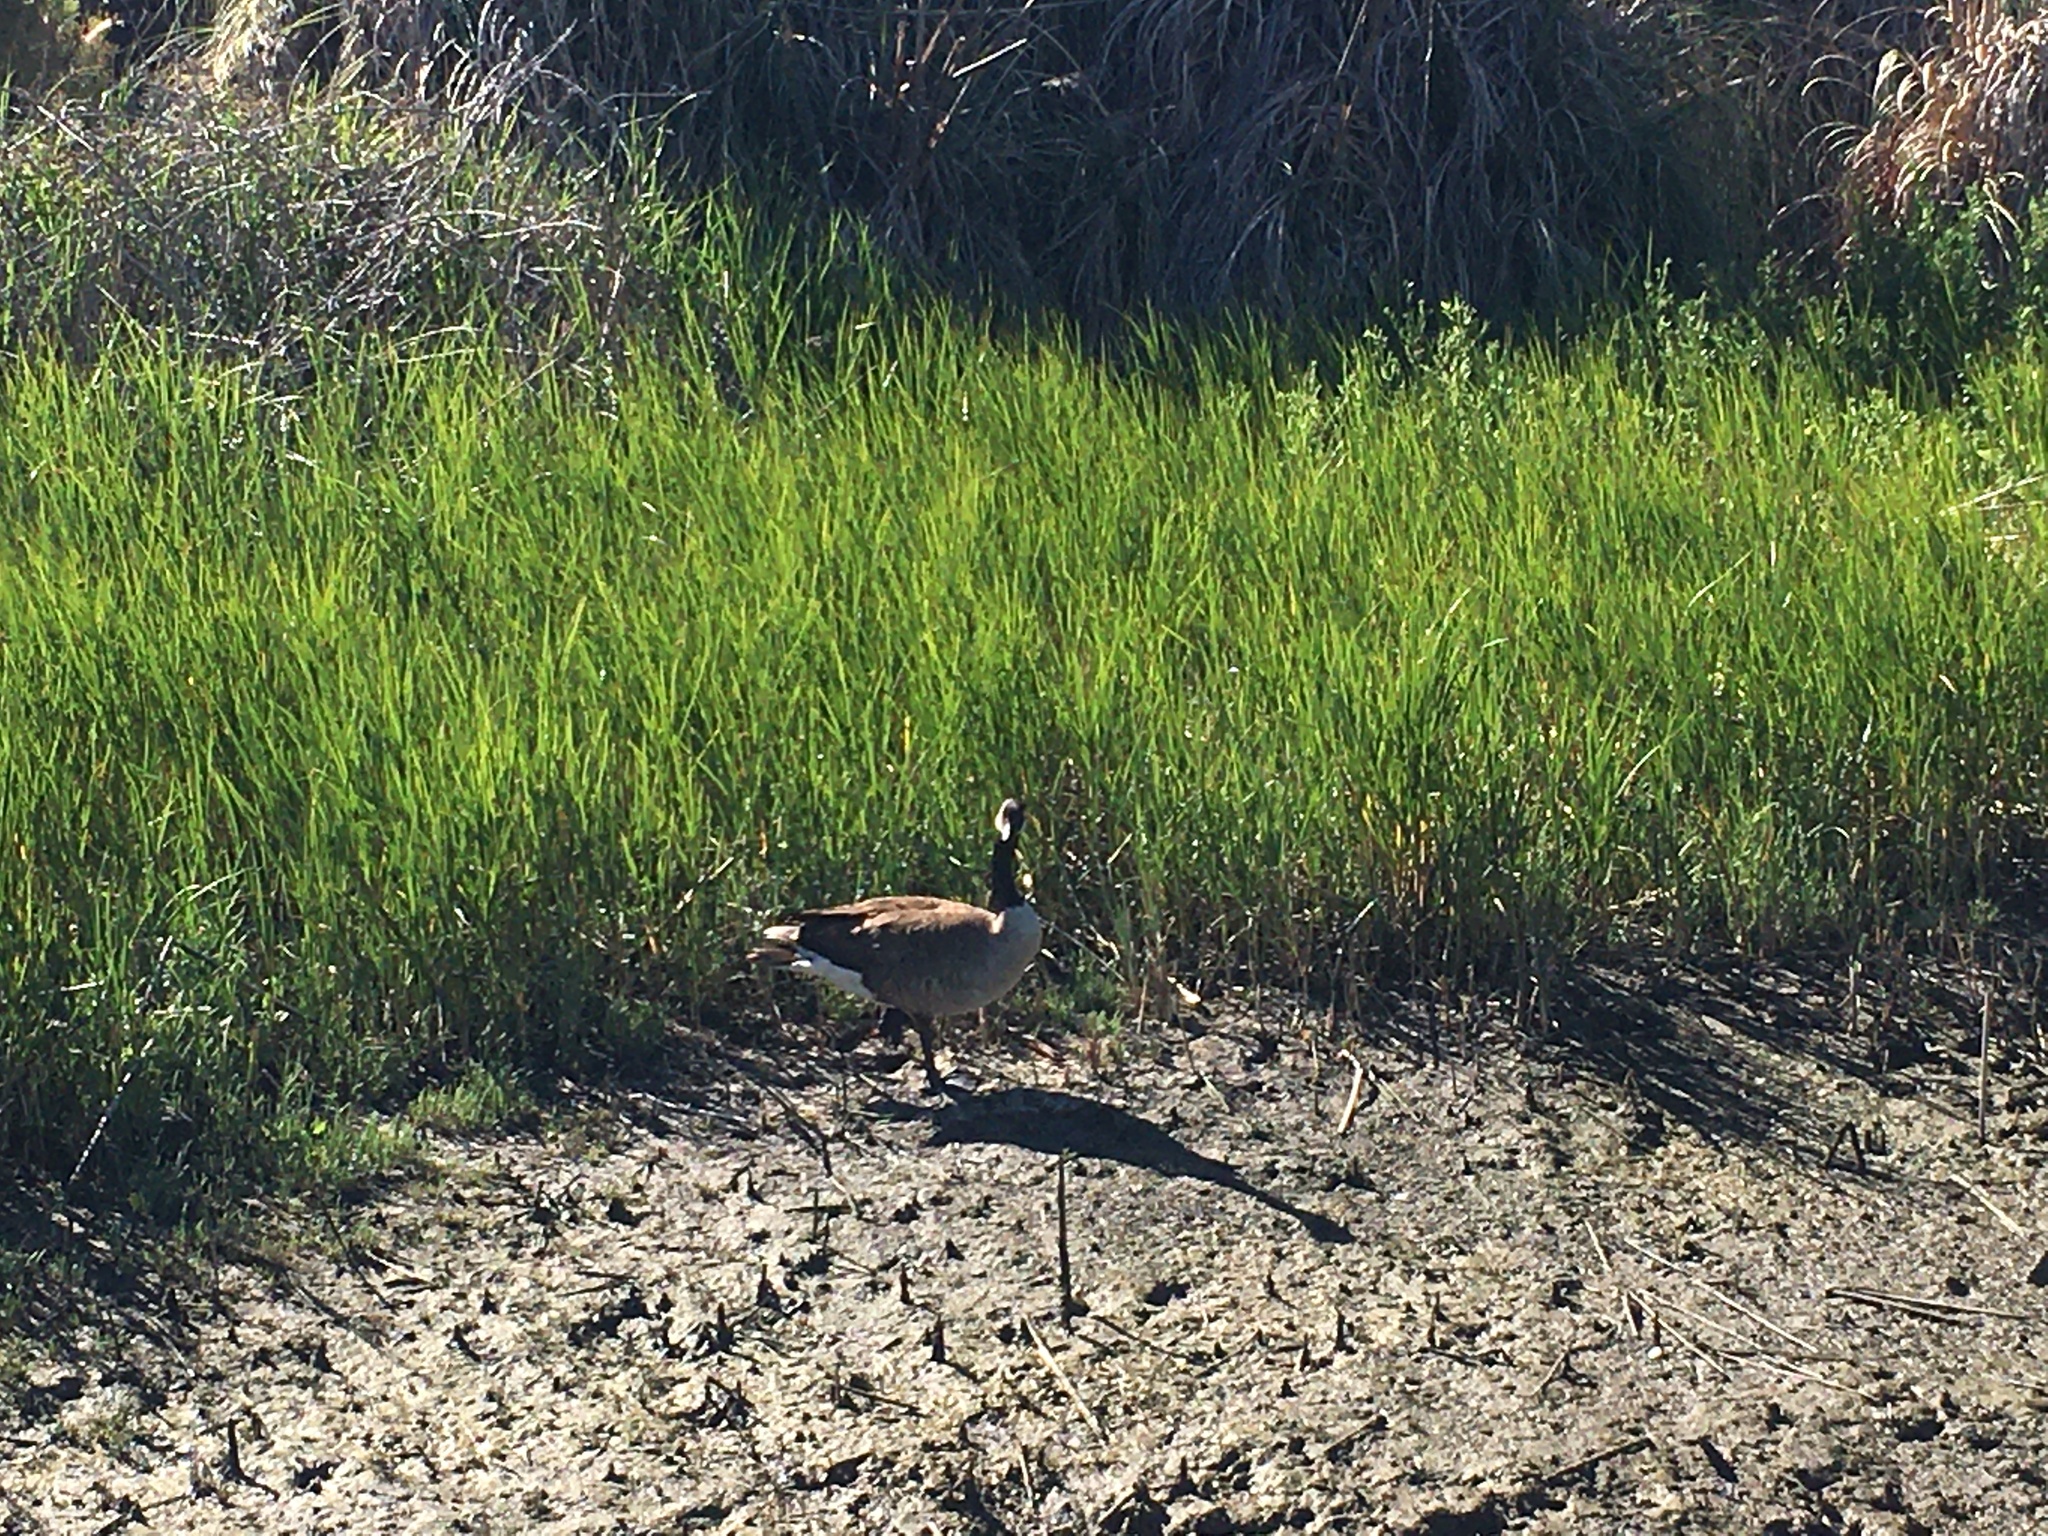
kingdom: Animalia
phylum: Chordata
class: Aves
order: Anseriformes
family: Anatidae
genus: Branta
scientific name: Branta canadensis
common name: Canada goose
